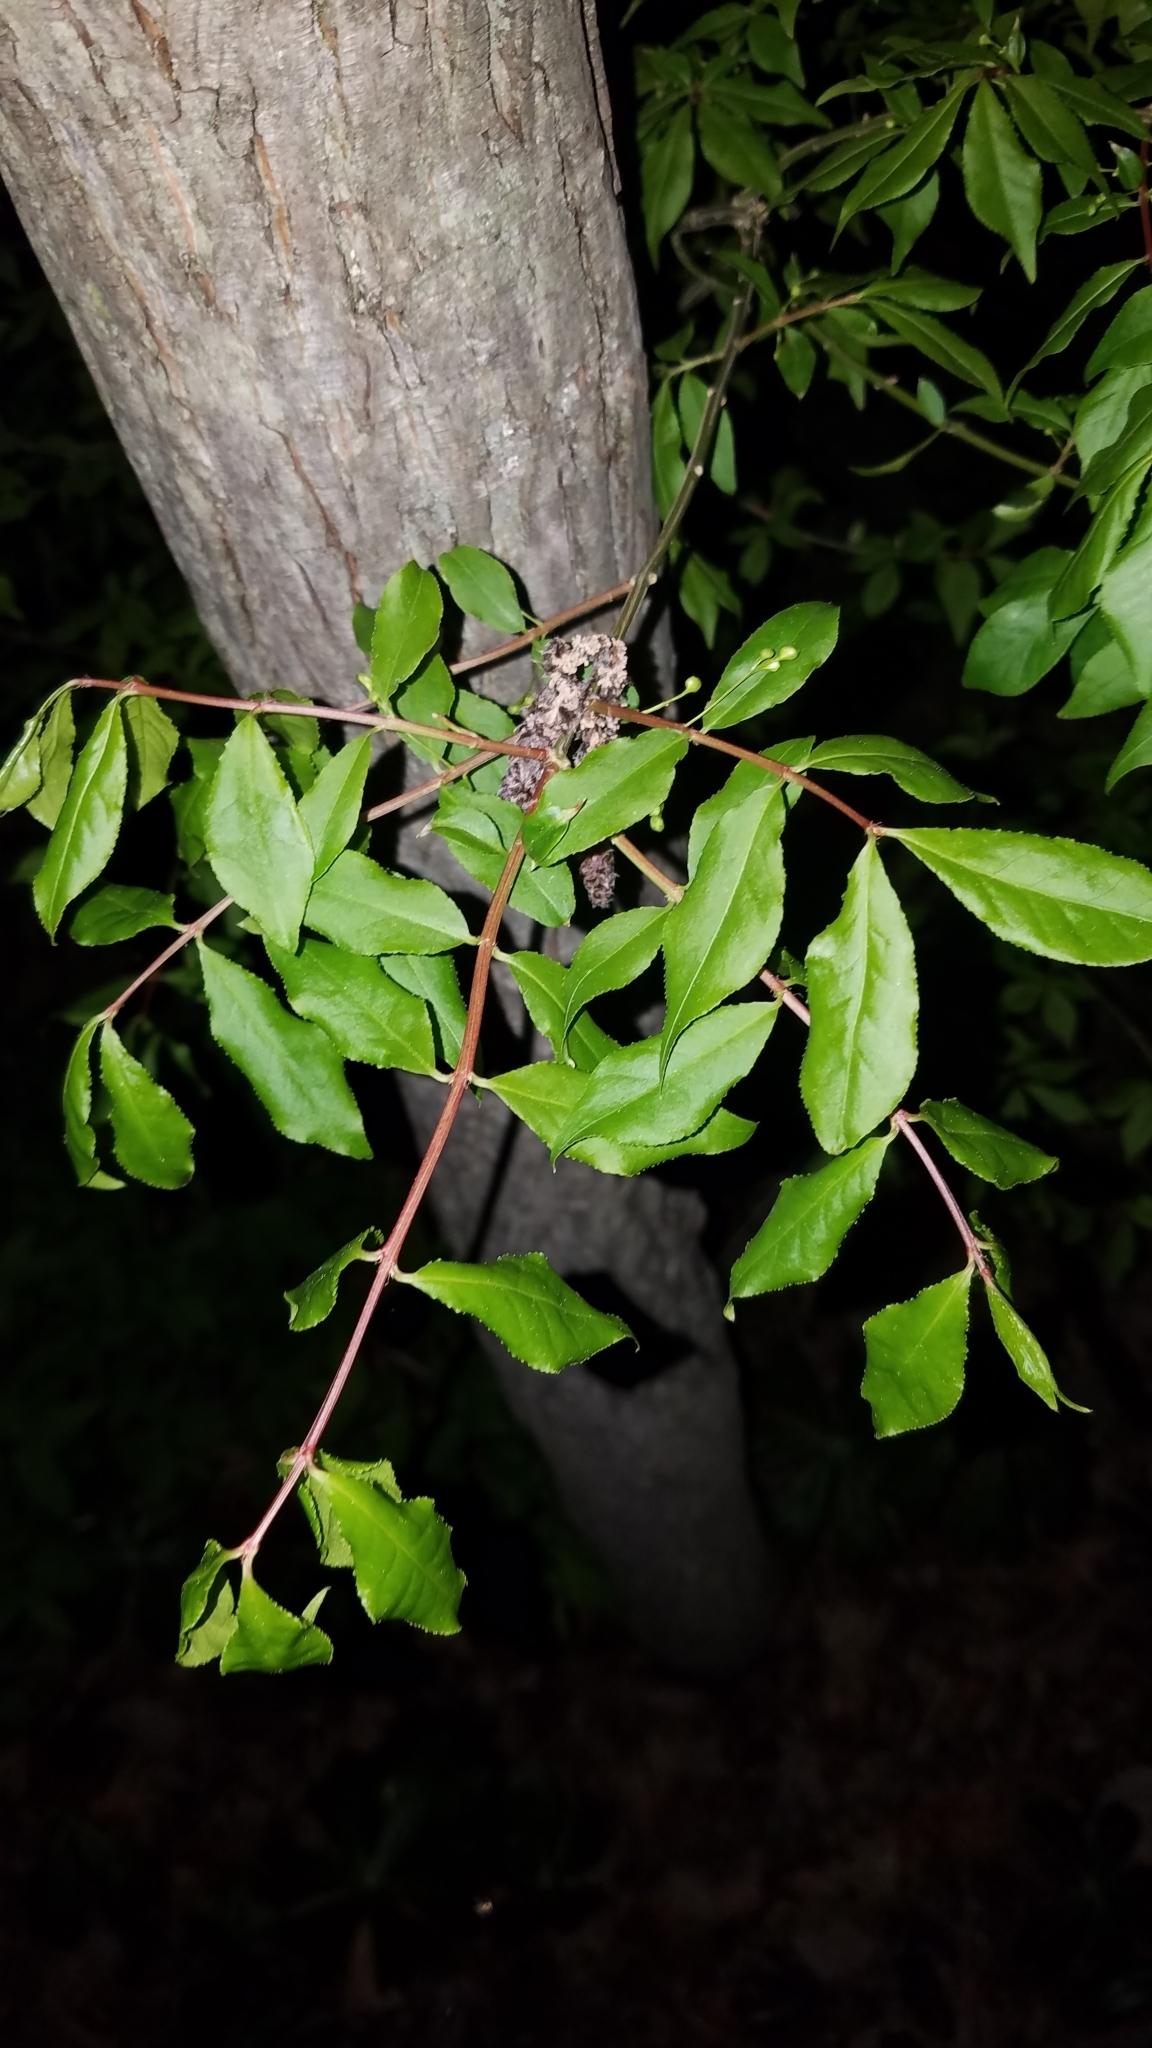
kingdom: Plantae
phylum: Tracheophyta
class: Magnoliopsida
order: Celastrales
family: Celastraceae
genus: Euonymus
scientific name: Euonymus alatus
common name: Winged euonymus
